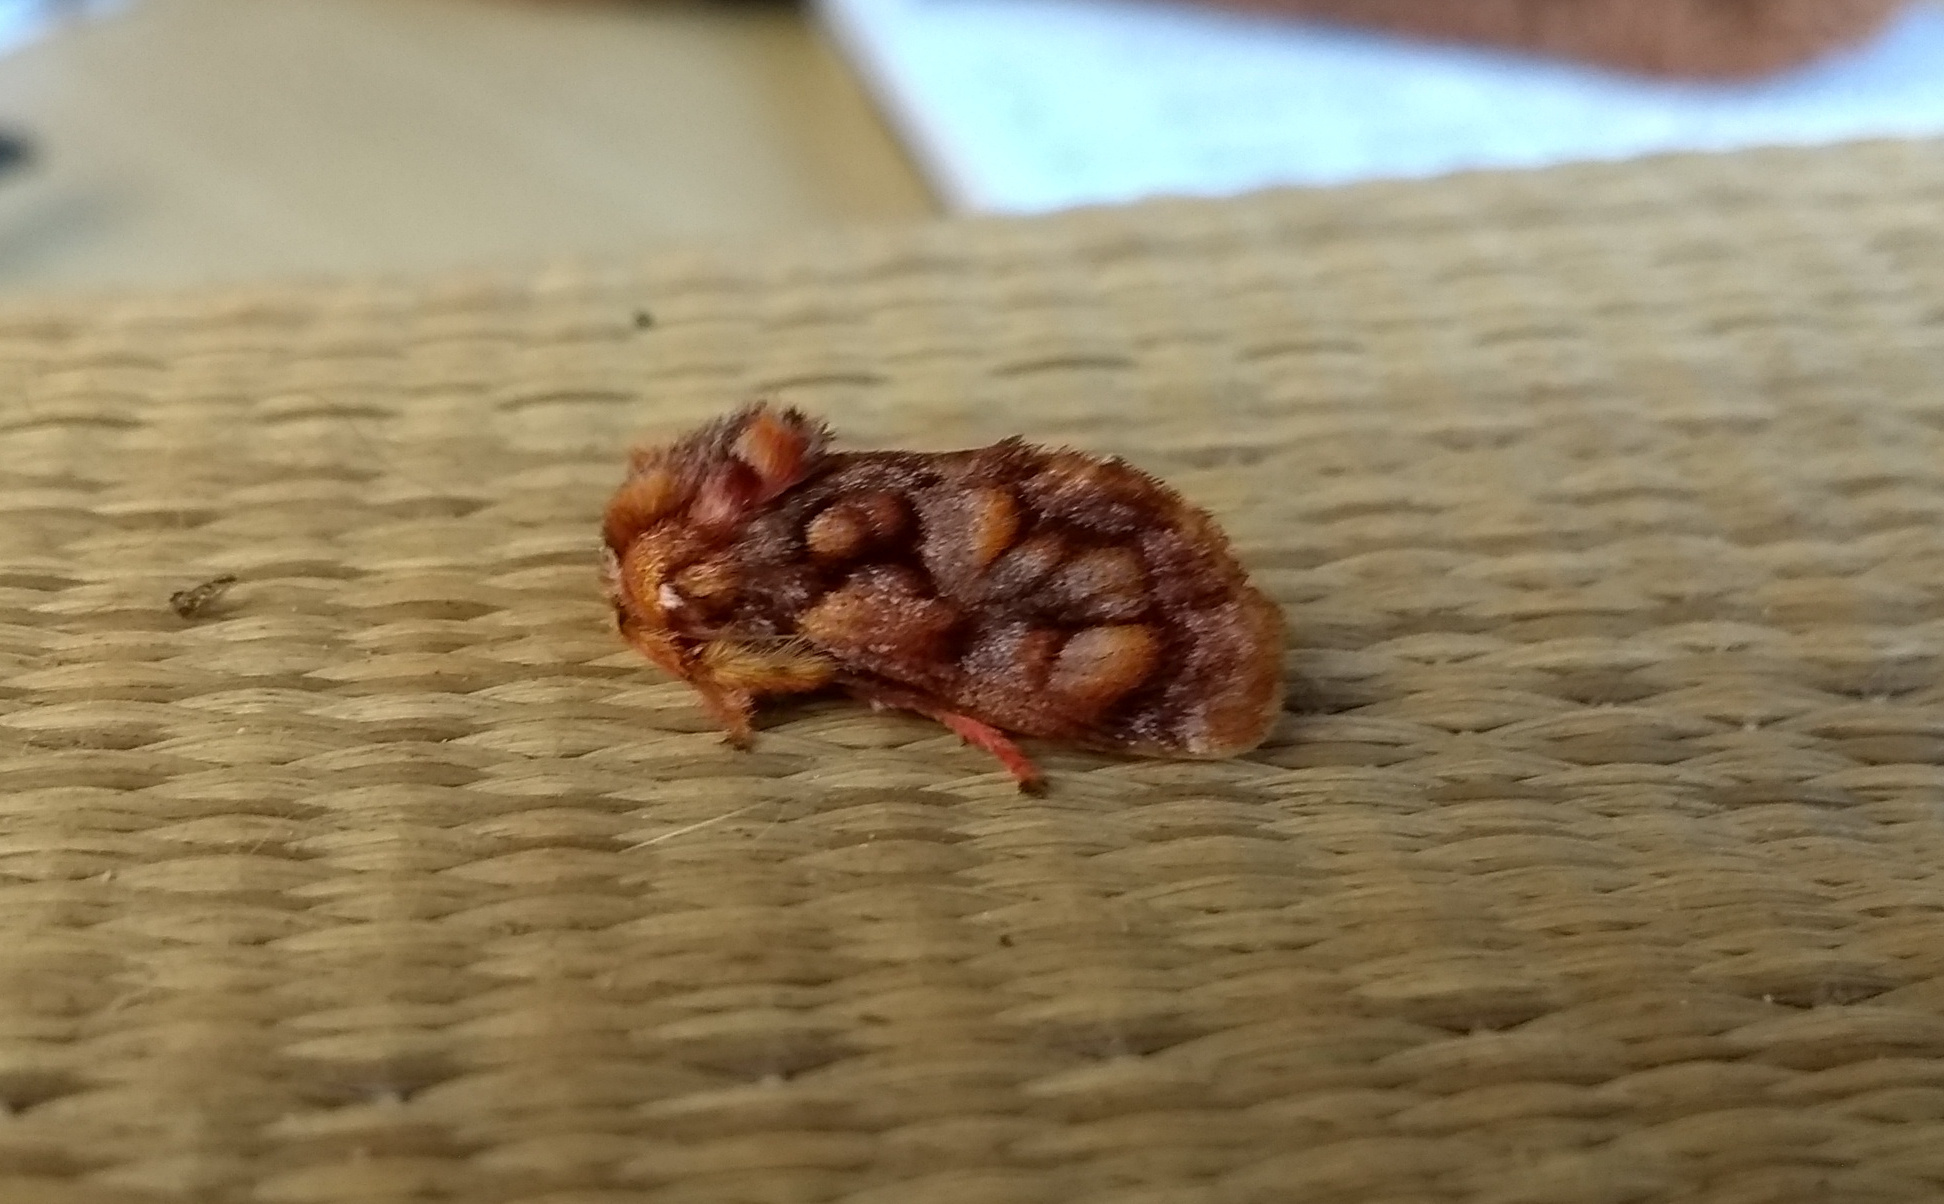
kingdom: Animalia
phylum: Arthropoda
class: Insecta
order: Lepidoptera
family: Limacodidae
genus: Phobetron
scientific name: Phobetron hipparchia
